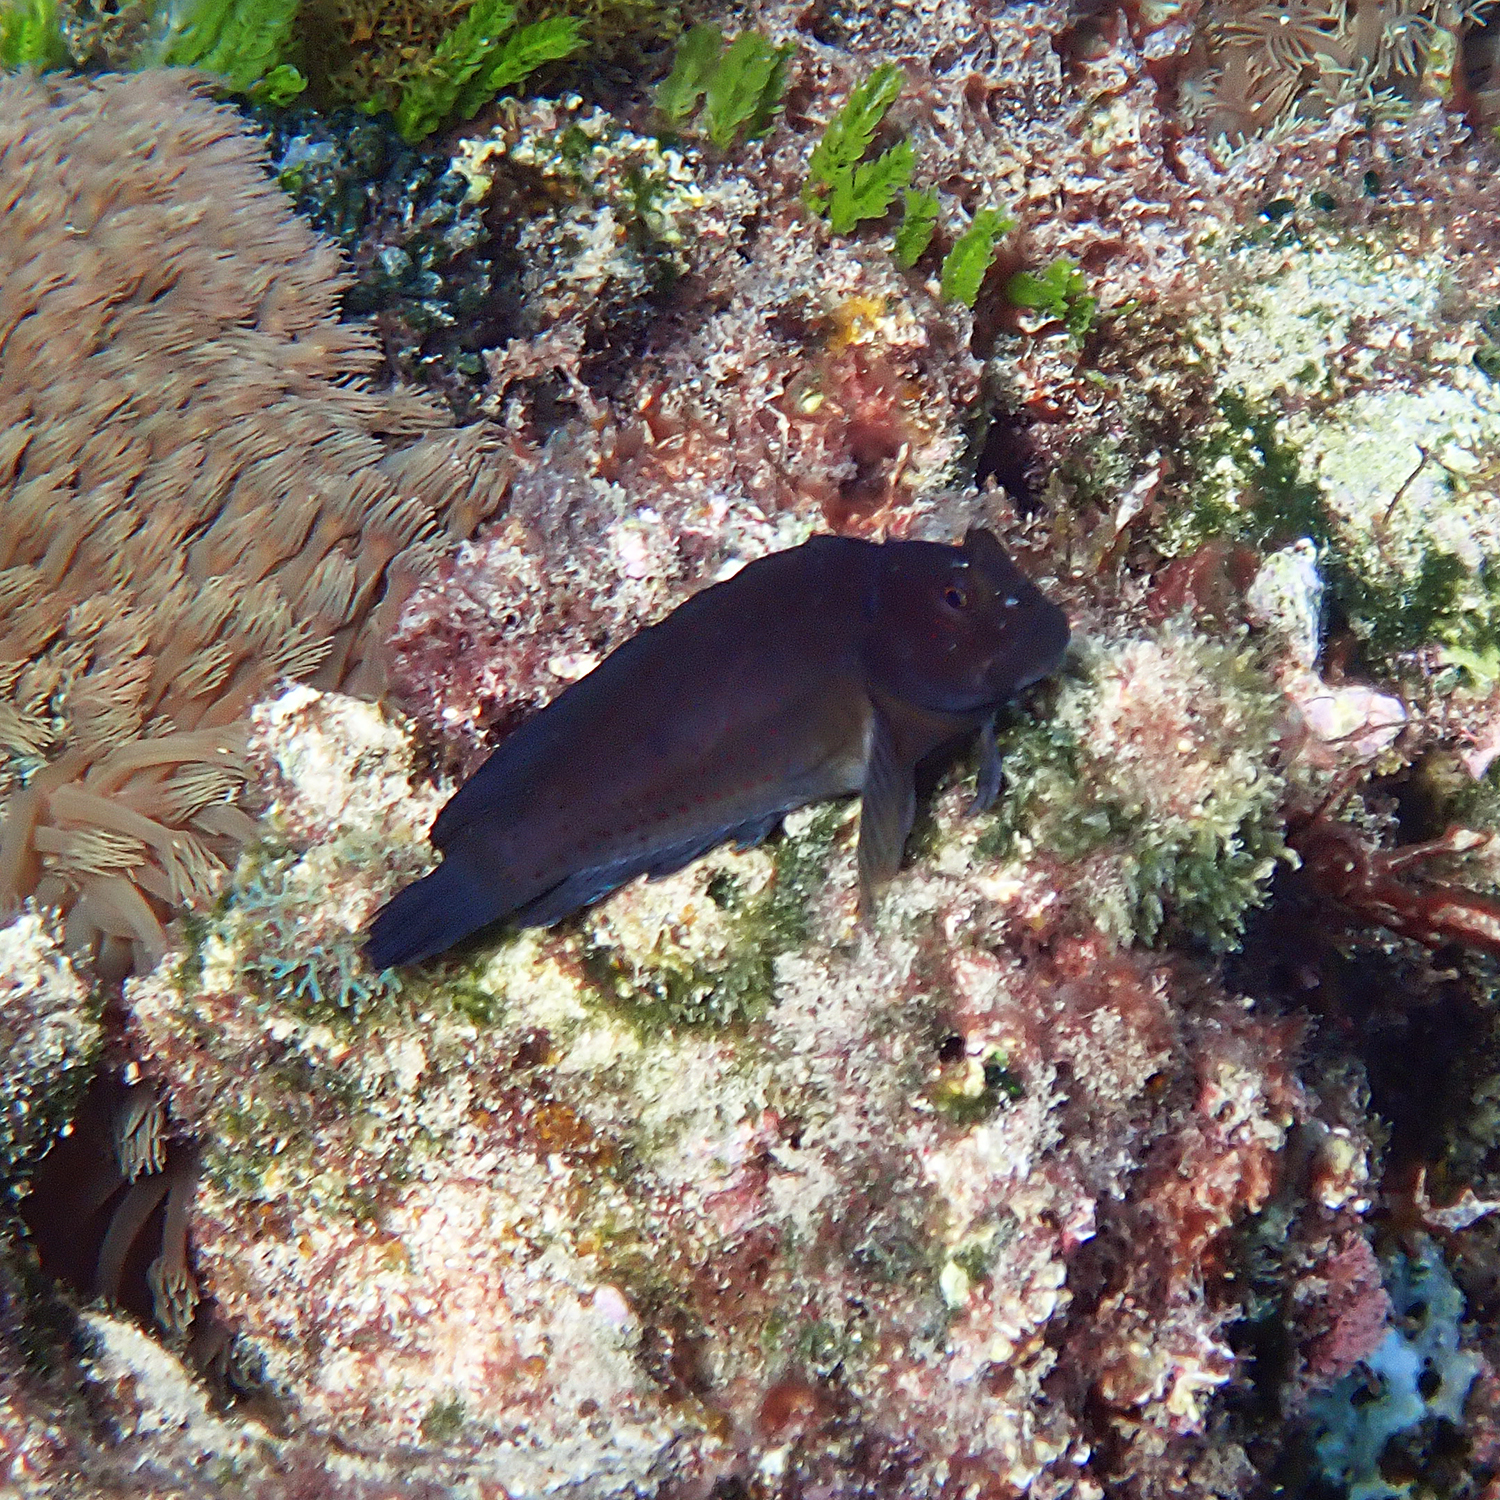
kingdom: Animalia
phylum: Chordata
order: Perciformes
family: Blenniidae
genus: Cirripectes
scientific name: Cirripectes chelomatus
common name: Lady musgrave blenny
